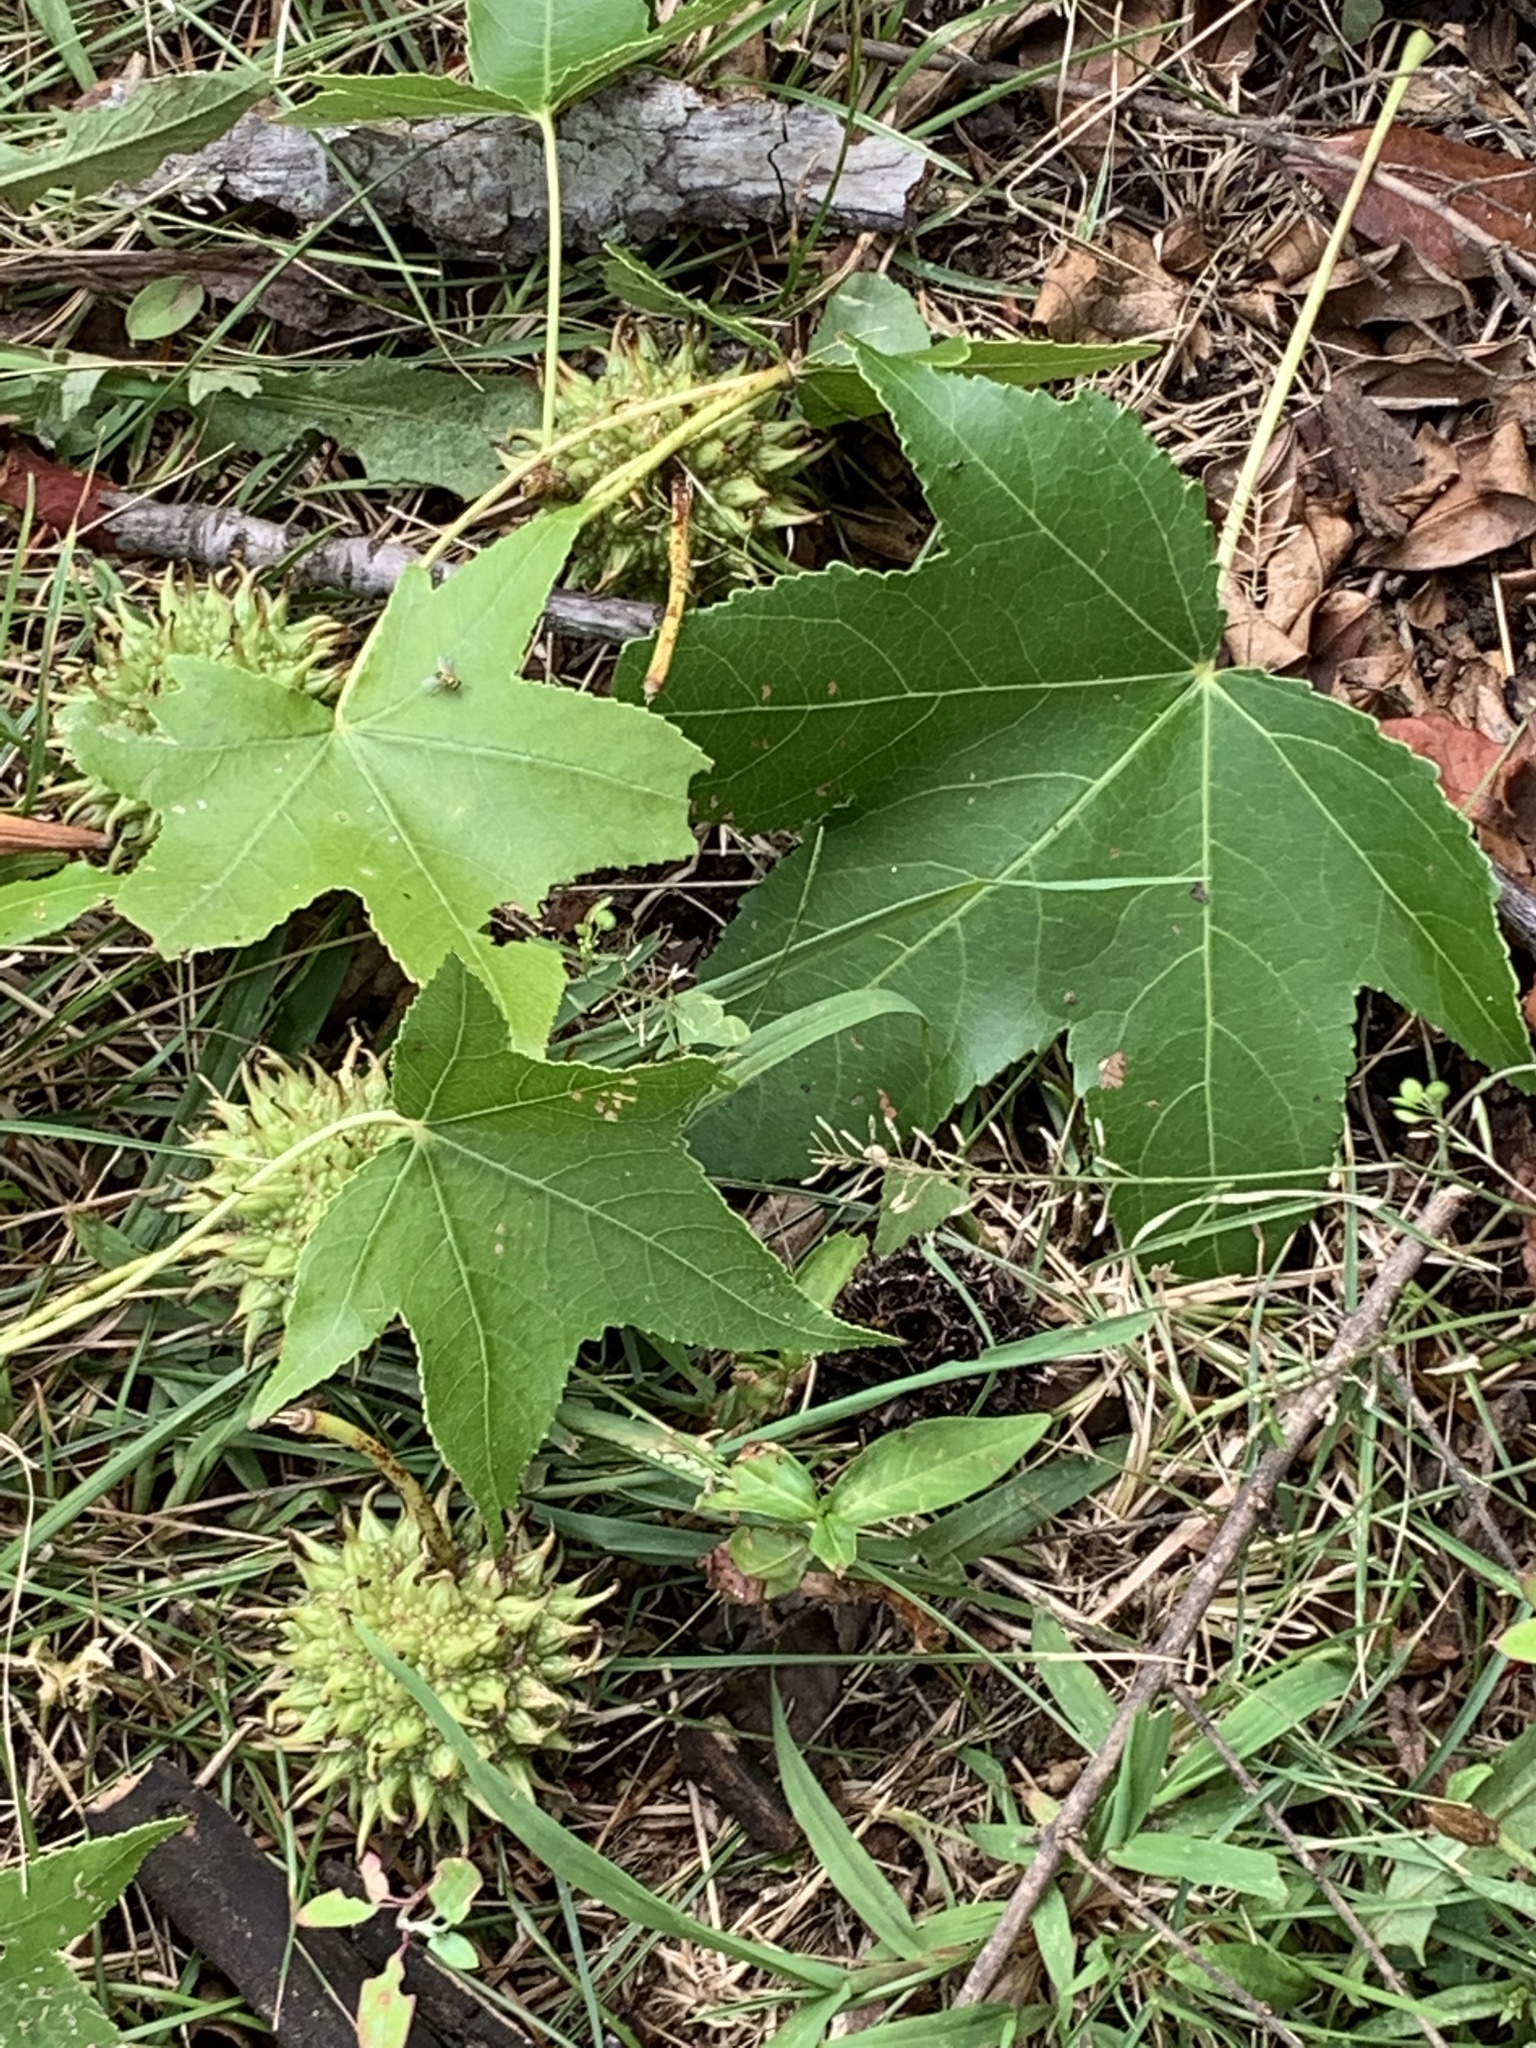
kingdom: Plantae
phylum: Tracheophyta
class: Magnoliopsida
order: Saxifragales
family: Altingiaceae
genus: Liquidambar
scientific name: Liquidambar styraciflua
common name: Sweet gum
